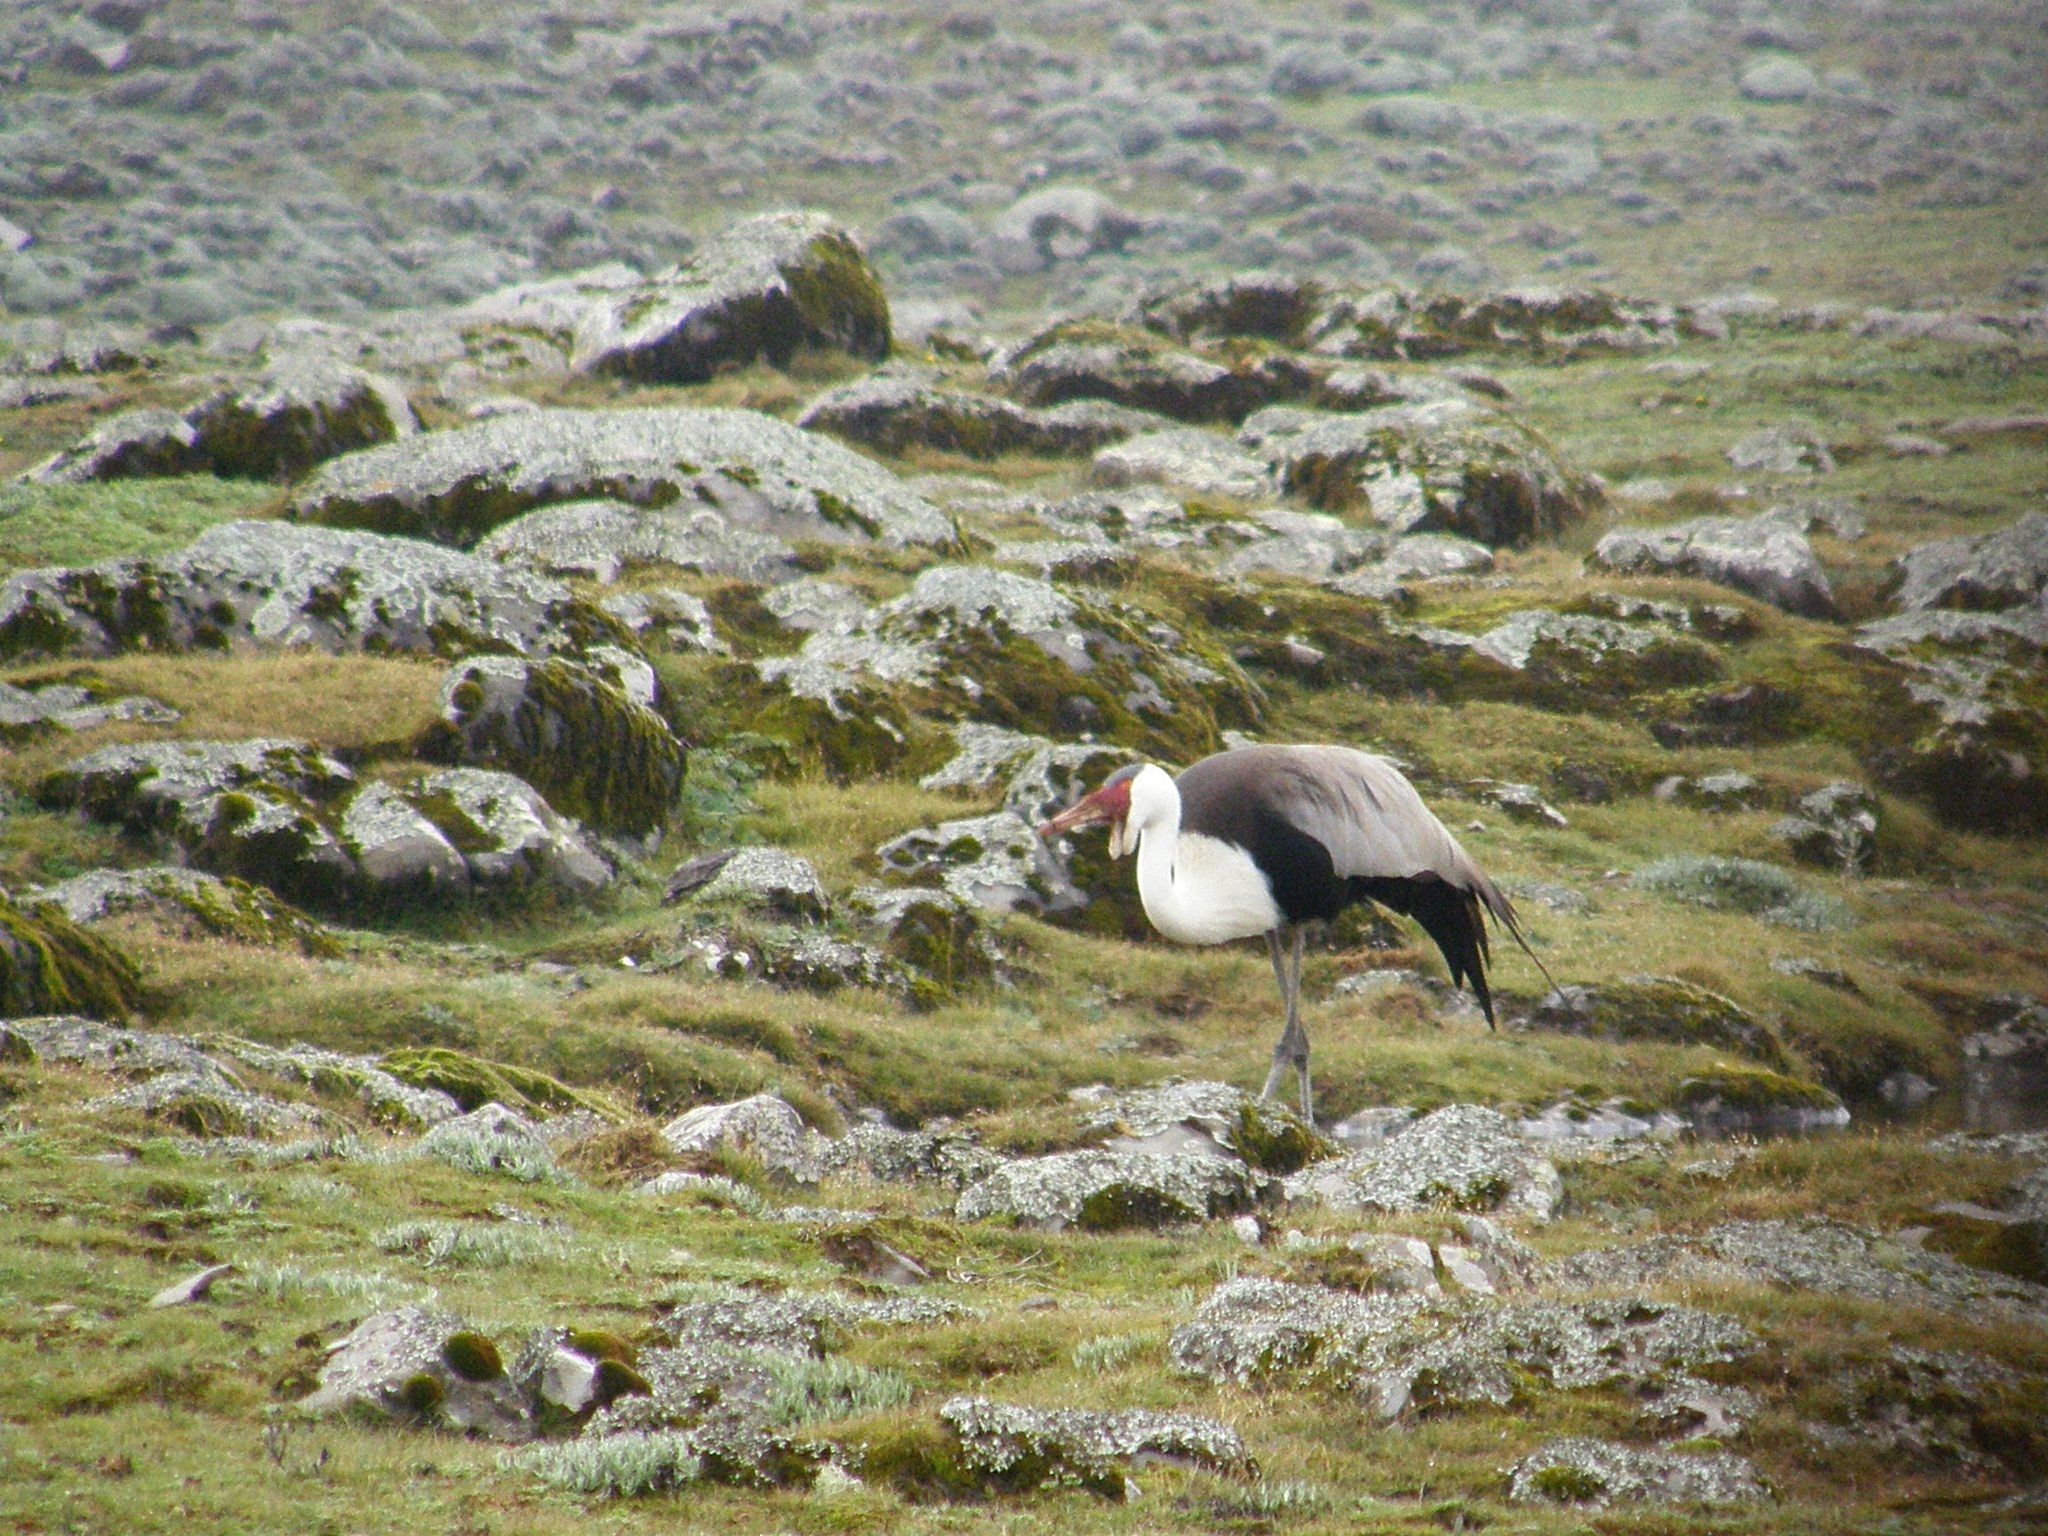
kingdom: Animalia
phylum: Chordata
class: Aves
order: Gruiformes
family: Gruidae
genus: Bugeranus
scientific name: Bugeranus carunculatus
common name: Wattled crane
